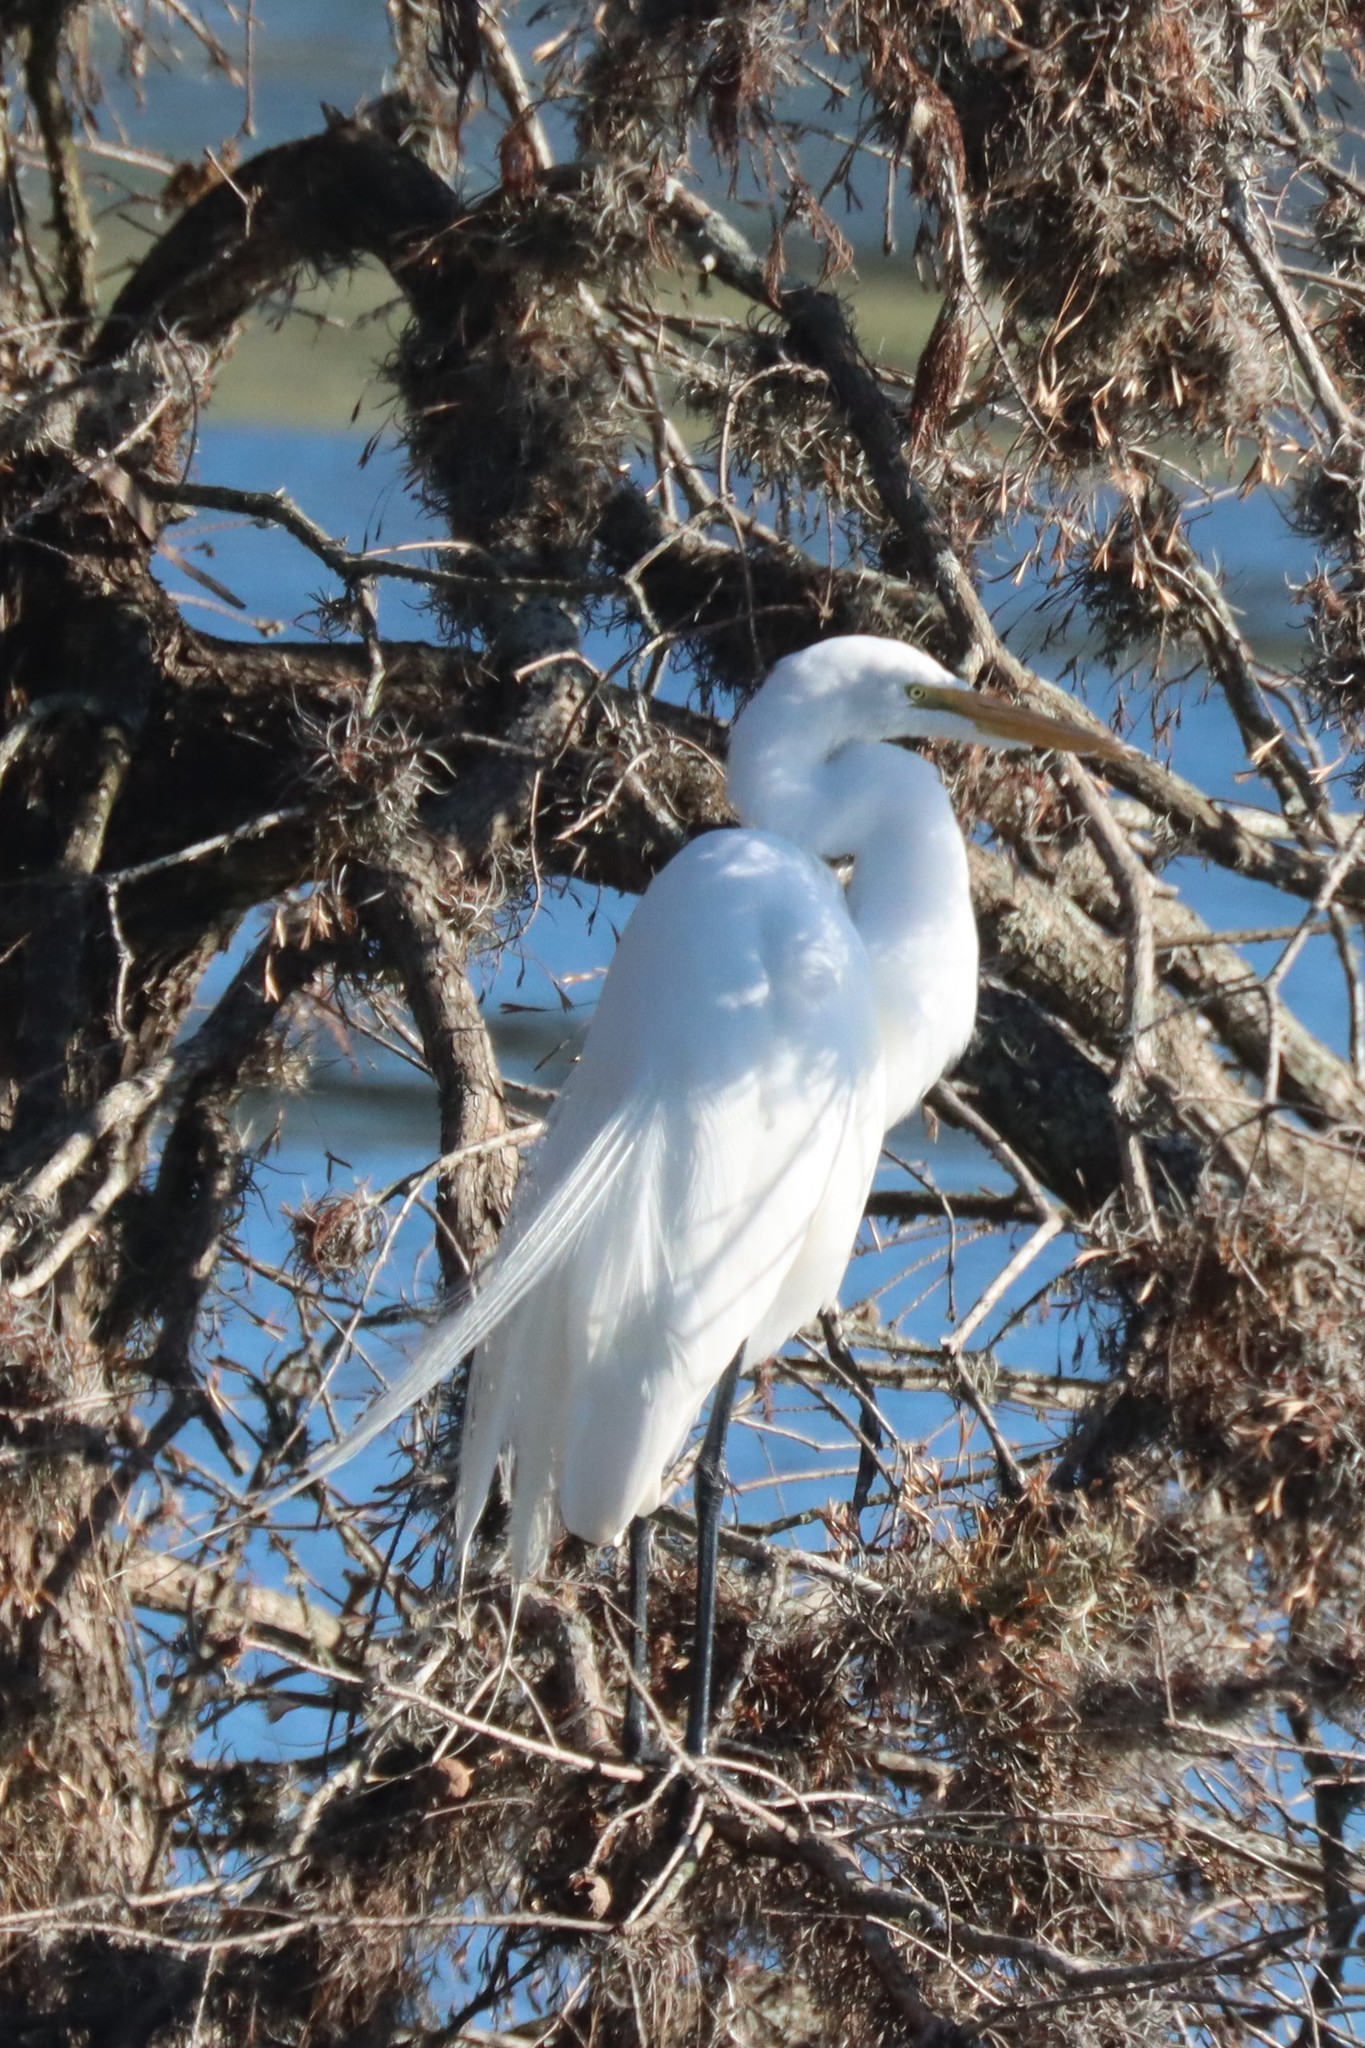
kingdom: Animalia
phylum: Chordata
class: Aves
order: Pelecaniformes
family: Ardeidae
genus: Ardea
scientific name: Ardea alba
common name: Great egret
